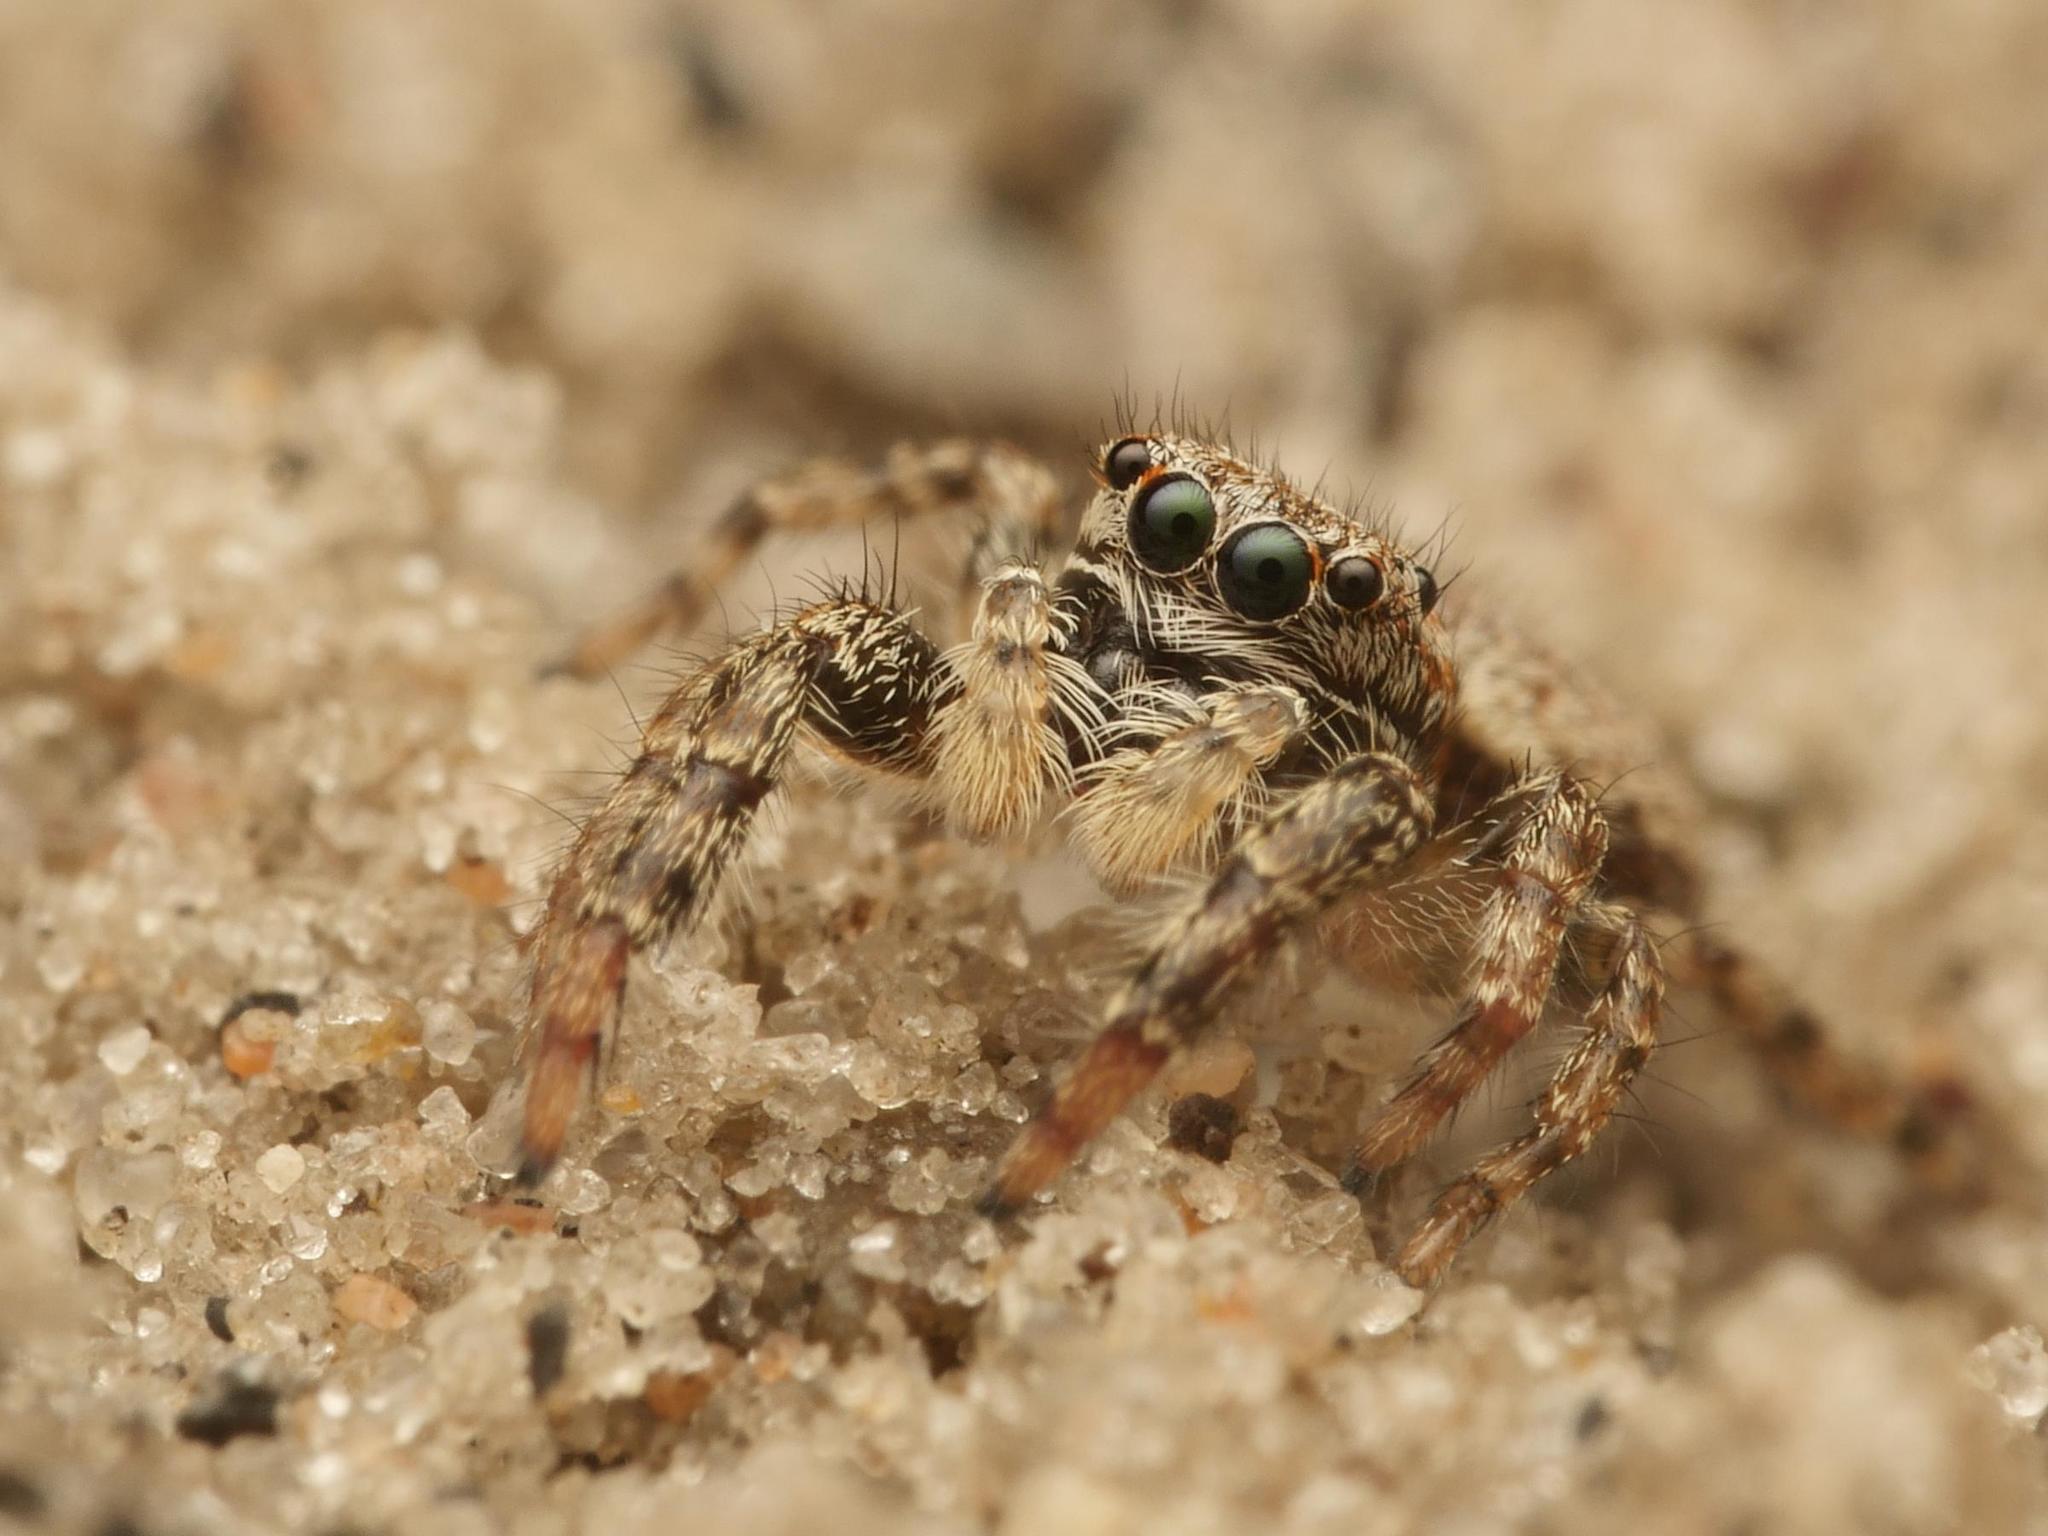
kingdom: Animalia
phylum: Arthropoda
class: Arachnida
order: Araneae
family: Salticidae
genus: Marpissa
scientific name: Marpissa muscosa
